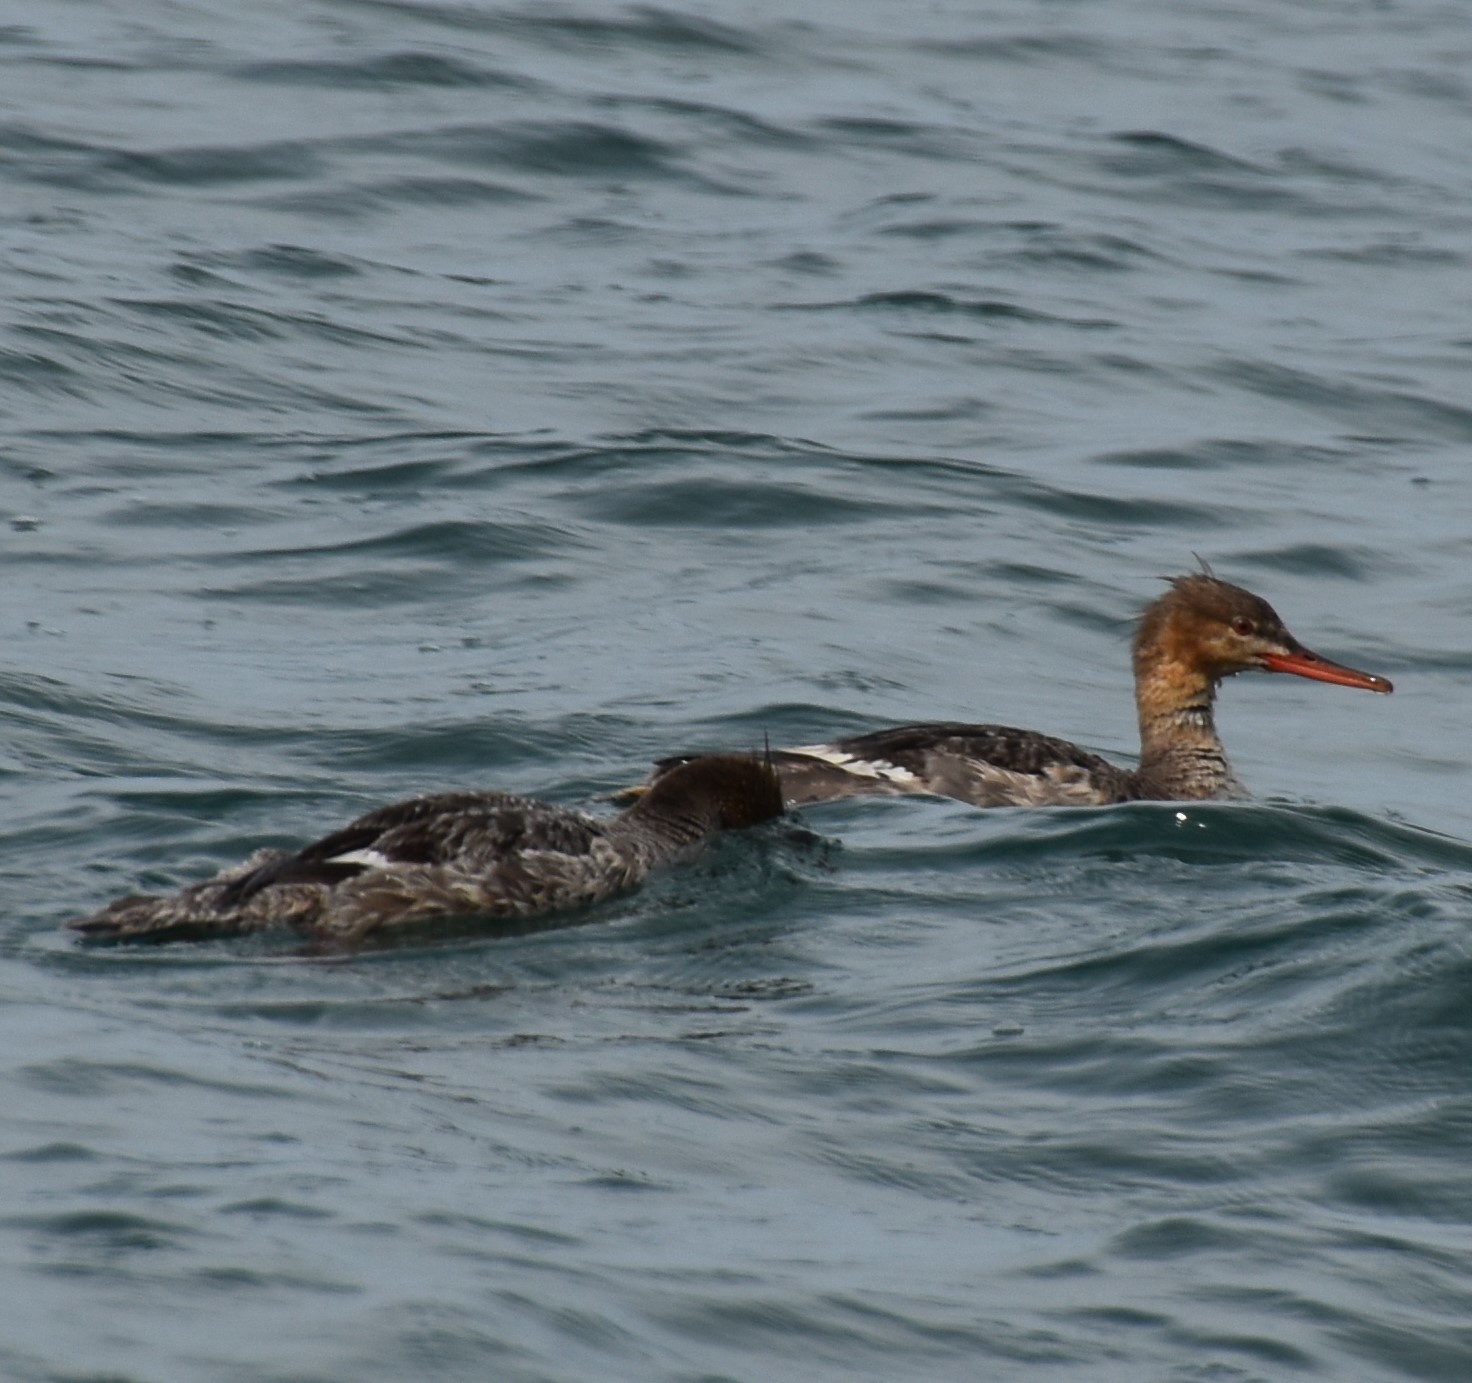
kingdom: Animalia
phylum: Chordata
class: Aves
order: Anseriformes
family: Anatidae
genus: Mergus
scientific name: Mergus serrator
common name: Red-breasted merganser
